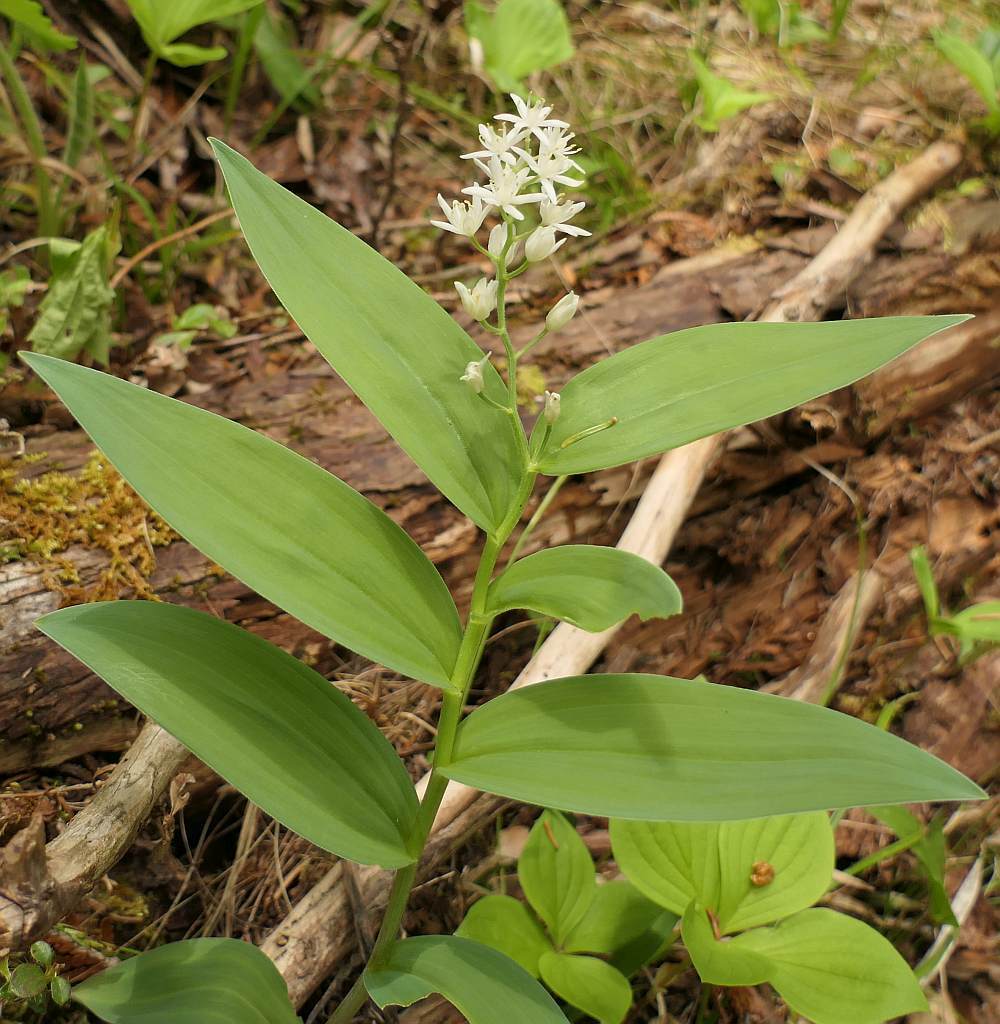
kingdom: Plantae
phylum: Tracheophyta
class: Liliopsida
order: Asparagales
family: Asparagaceae
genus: Maianthemum
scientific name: Maianthemum stellatum
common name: Little false solomon's seal
